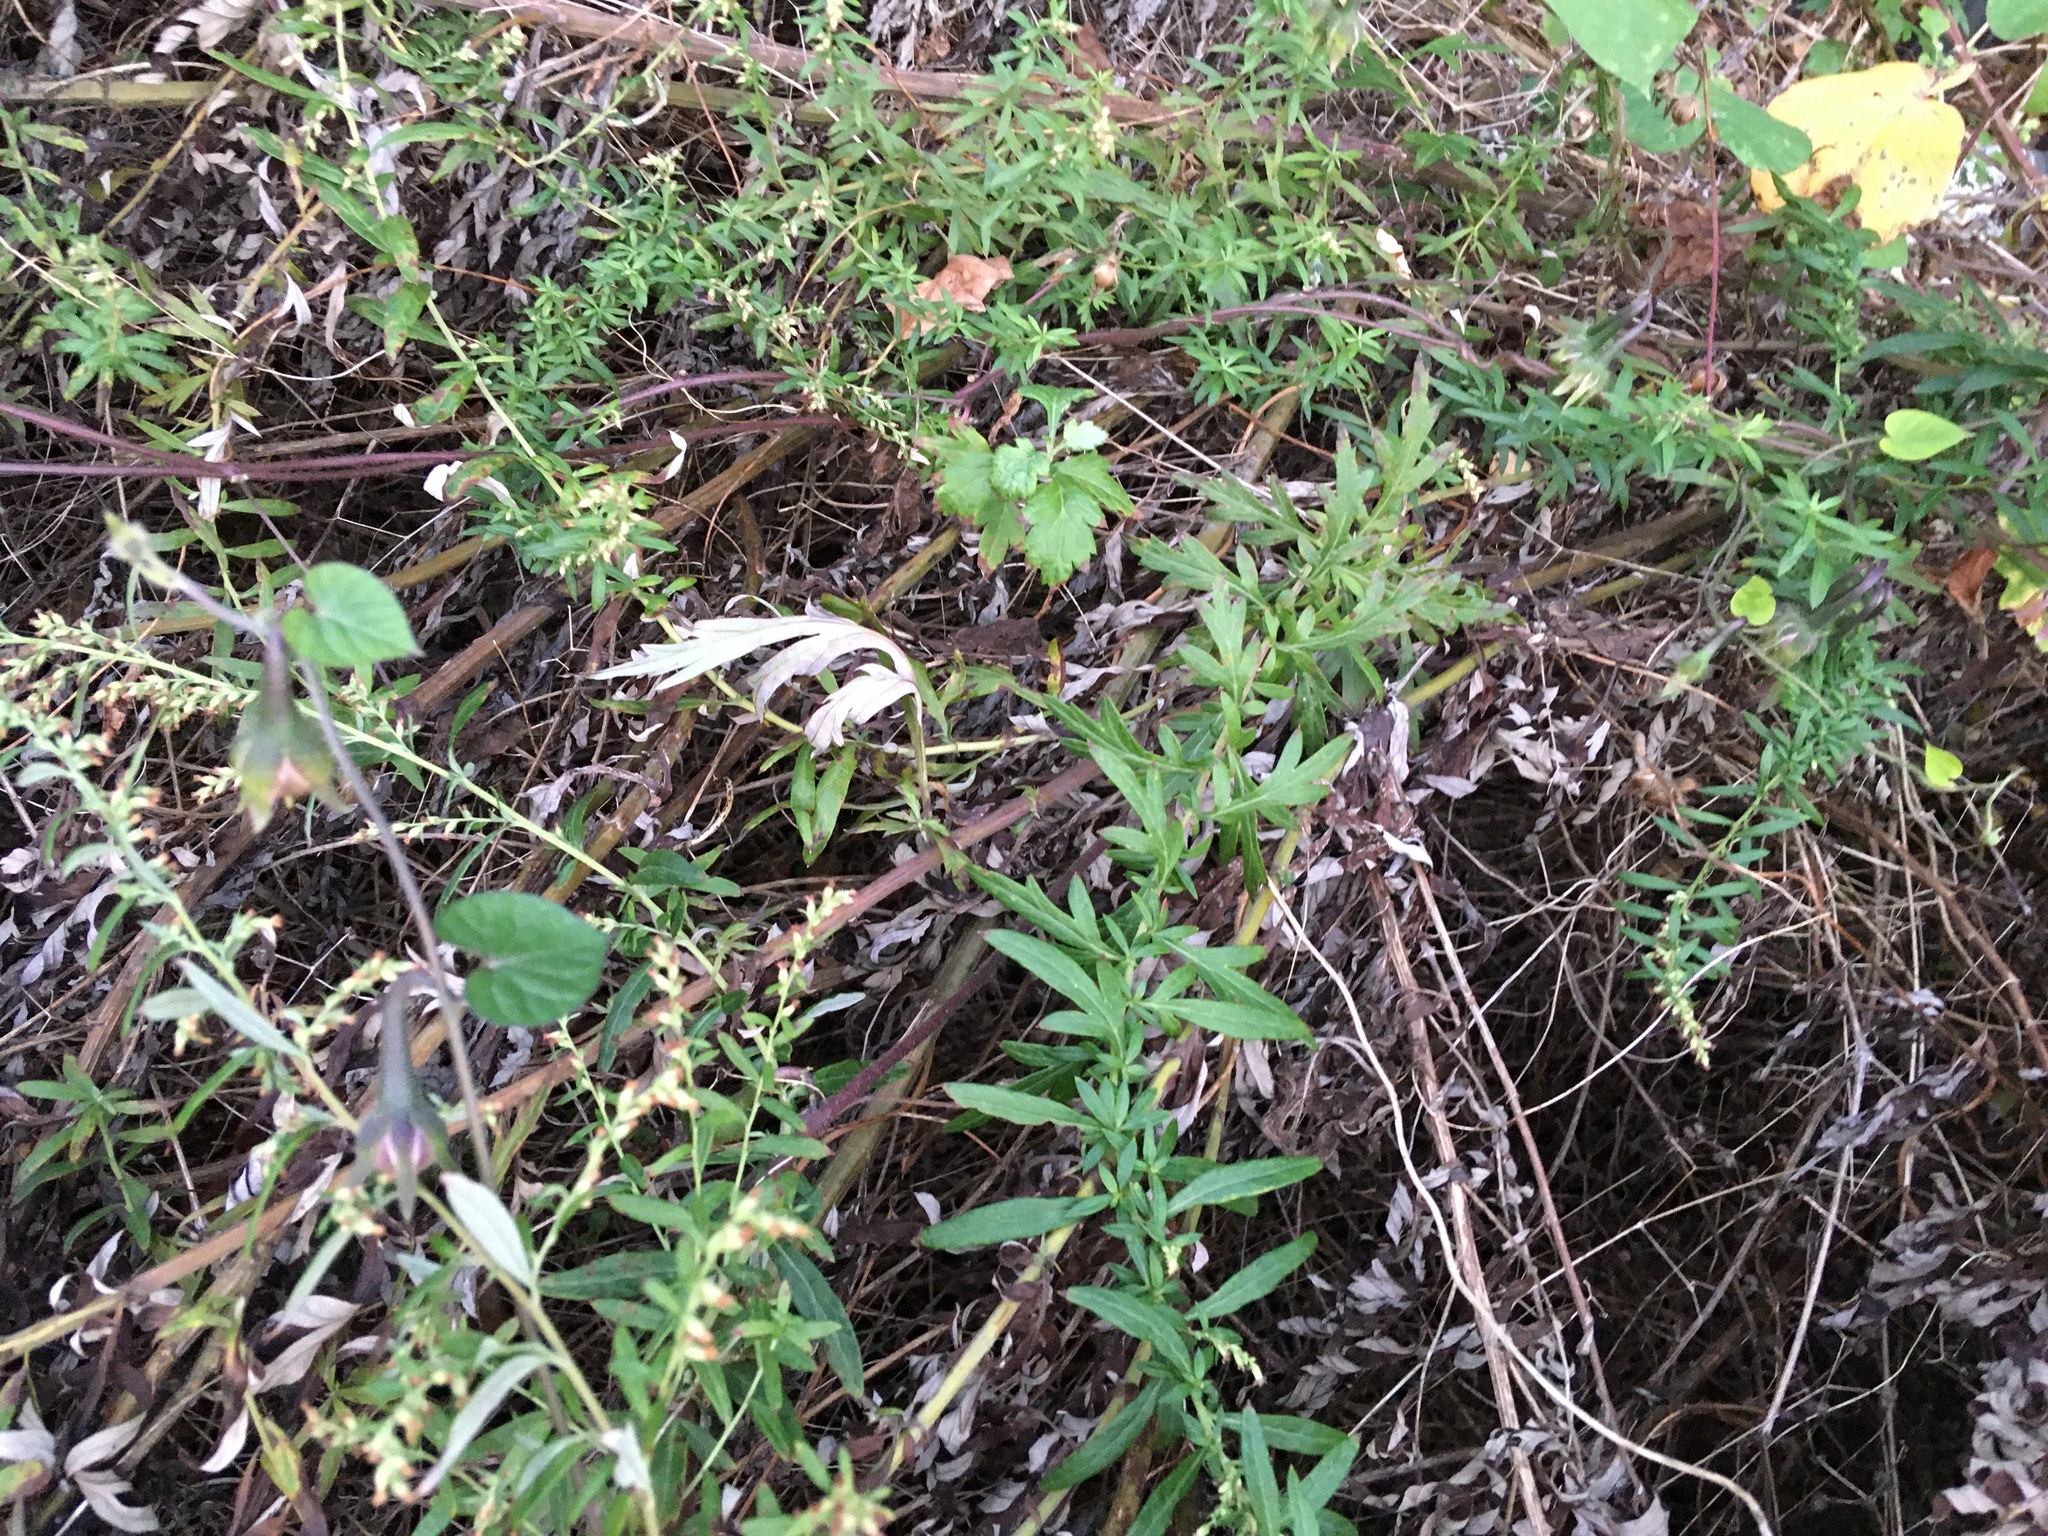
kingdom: Plantae
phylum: Tracheophyta
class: Magnoliopsida
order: Asterales
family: Asteraceae
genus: Artemisia
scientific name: Artemisia vulgaris
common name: Mugwort
